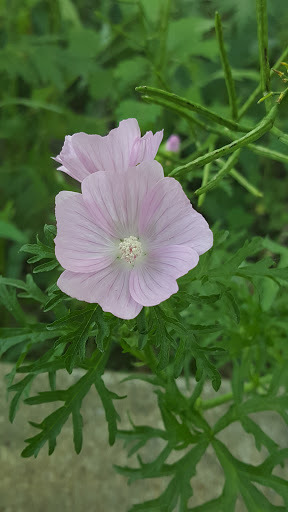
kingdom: Plantae
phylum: Tracheophyta
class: Magnoliopsida
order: Malvales
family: Malvaceae
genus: Malva
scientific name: Malva moschata
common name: Musk mallow
